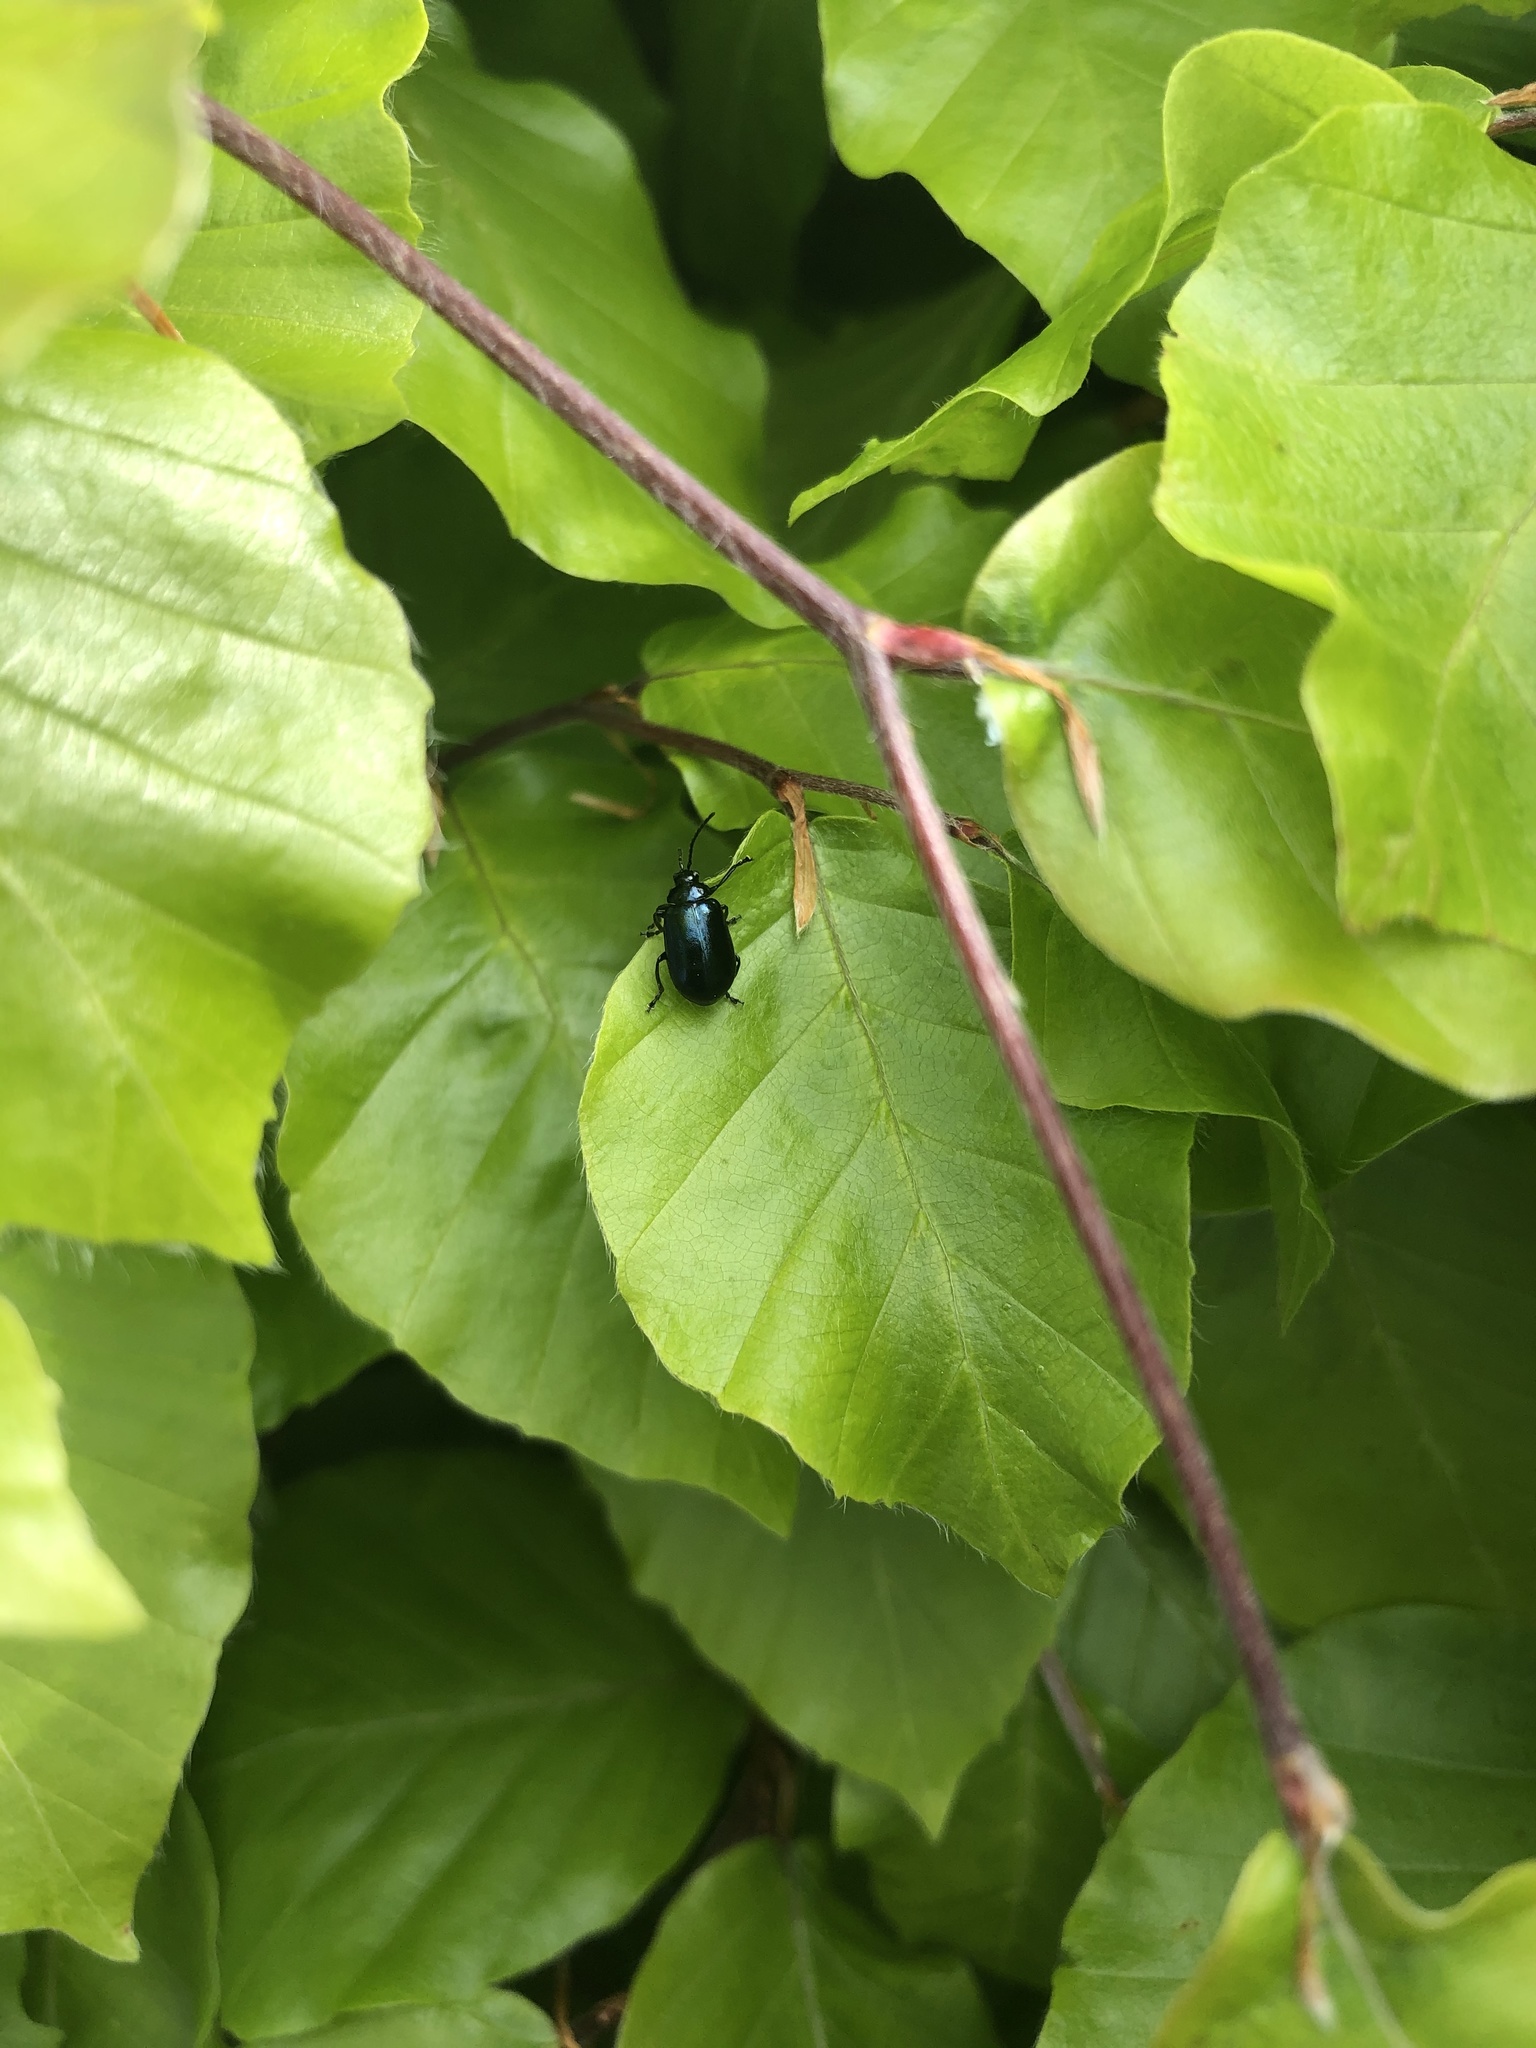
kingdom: Animalia
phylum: Arthropoda
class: Insecta
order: Coleoptera
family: Chrysomelidae
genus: Agelastica
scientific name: Agelastica alni
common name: Alder leaf beetle
